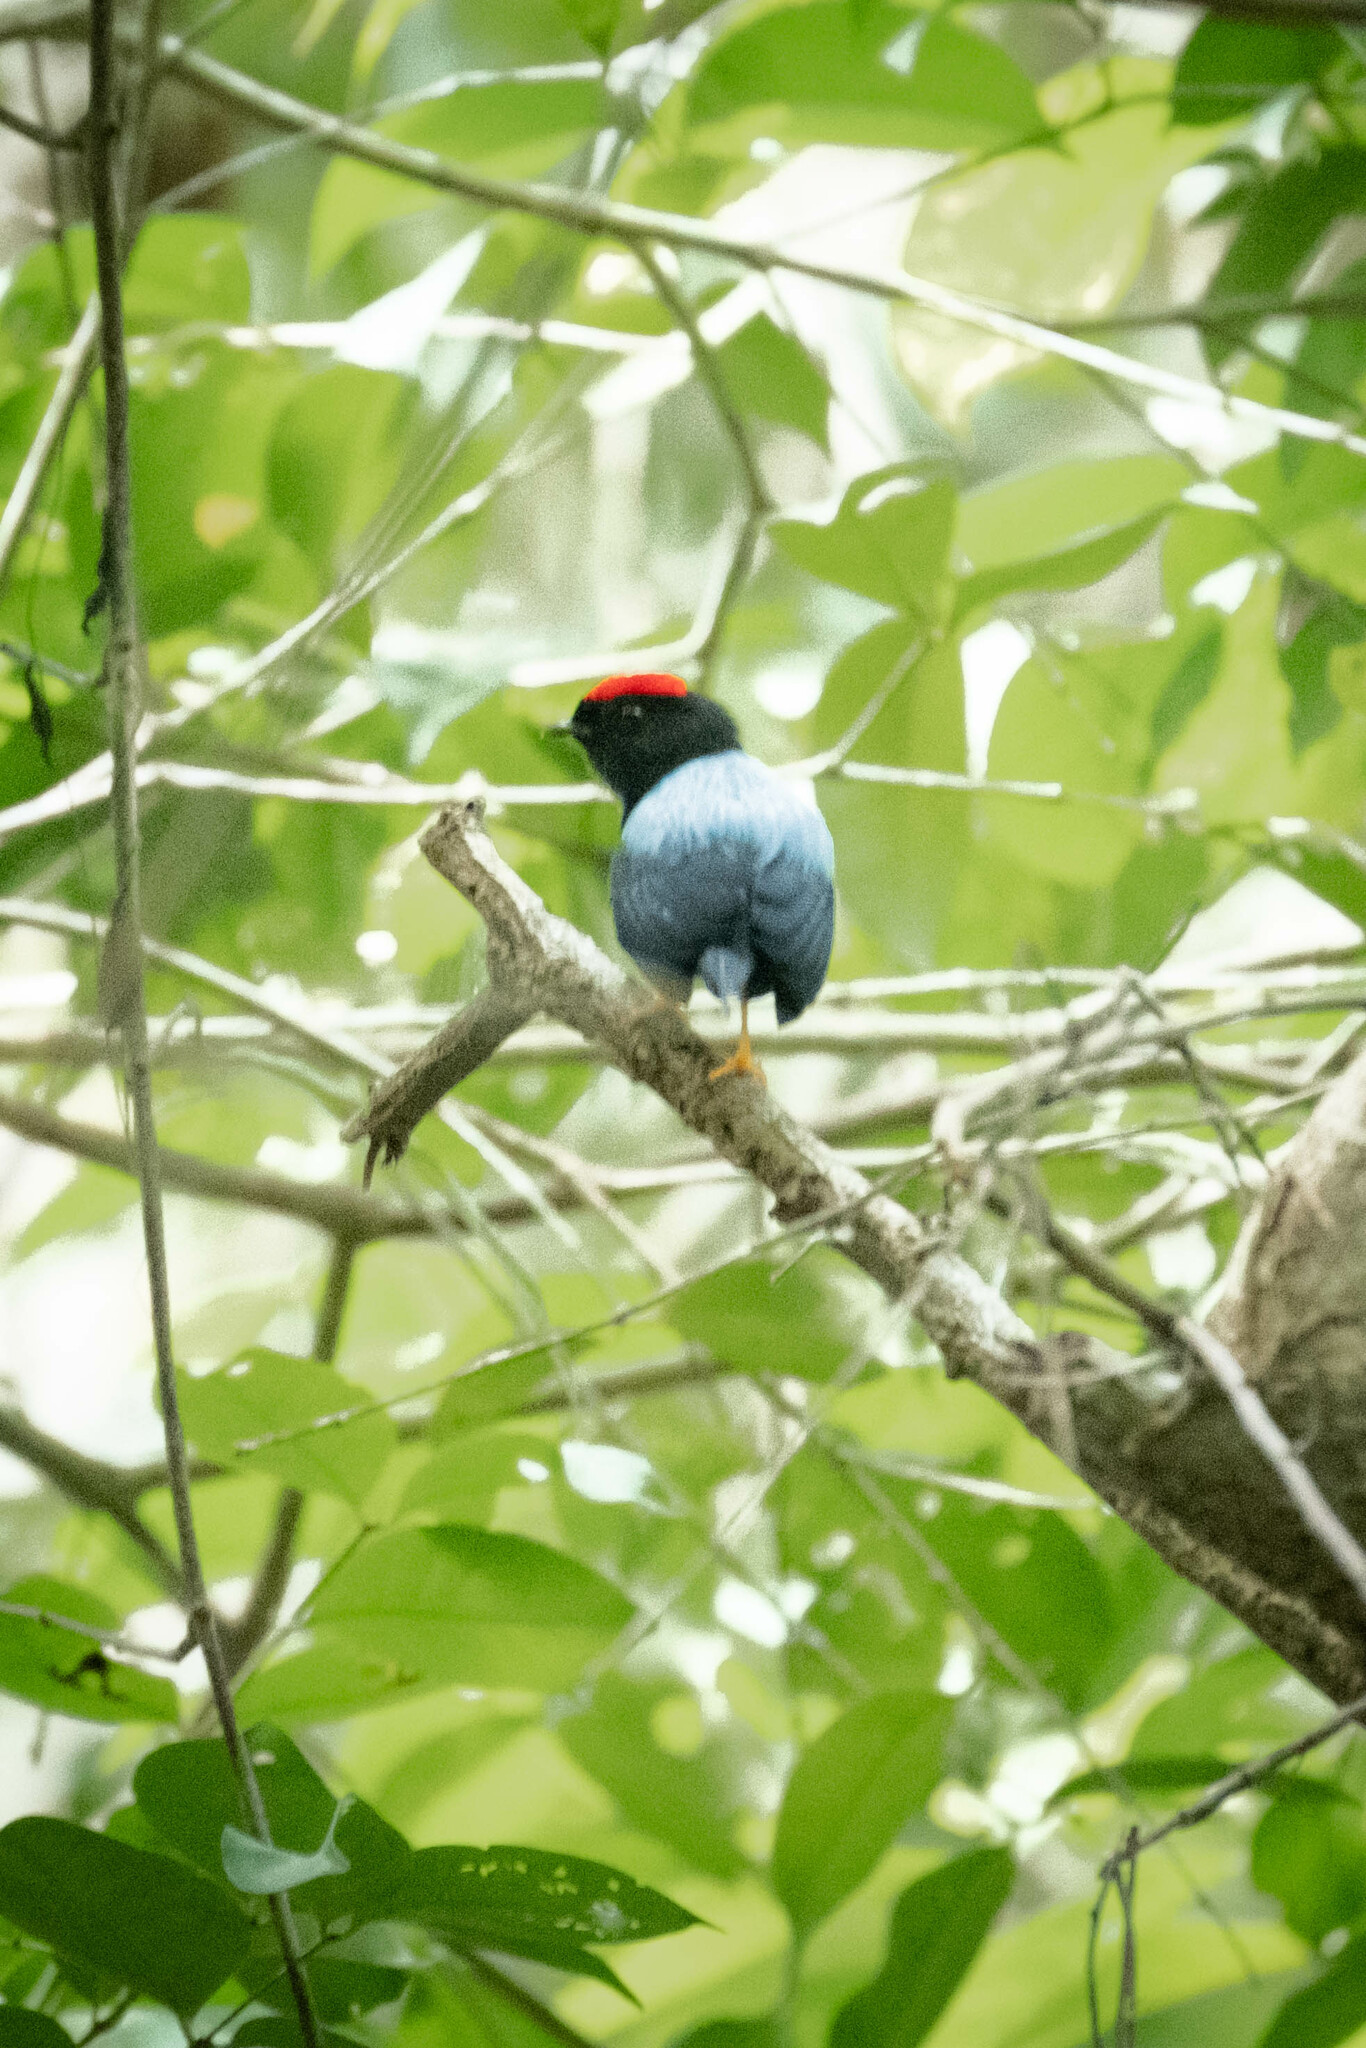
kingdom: Animalia
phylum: Chordata
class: Aves
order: Passeriformes
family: Pipridae
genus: Chiroxiphia
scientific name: Chiroxiphia lanceolata
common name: Lance-tailed manakin
